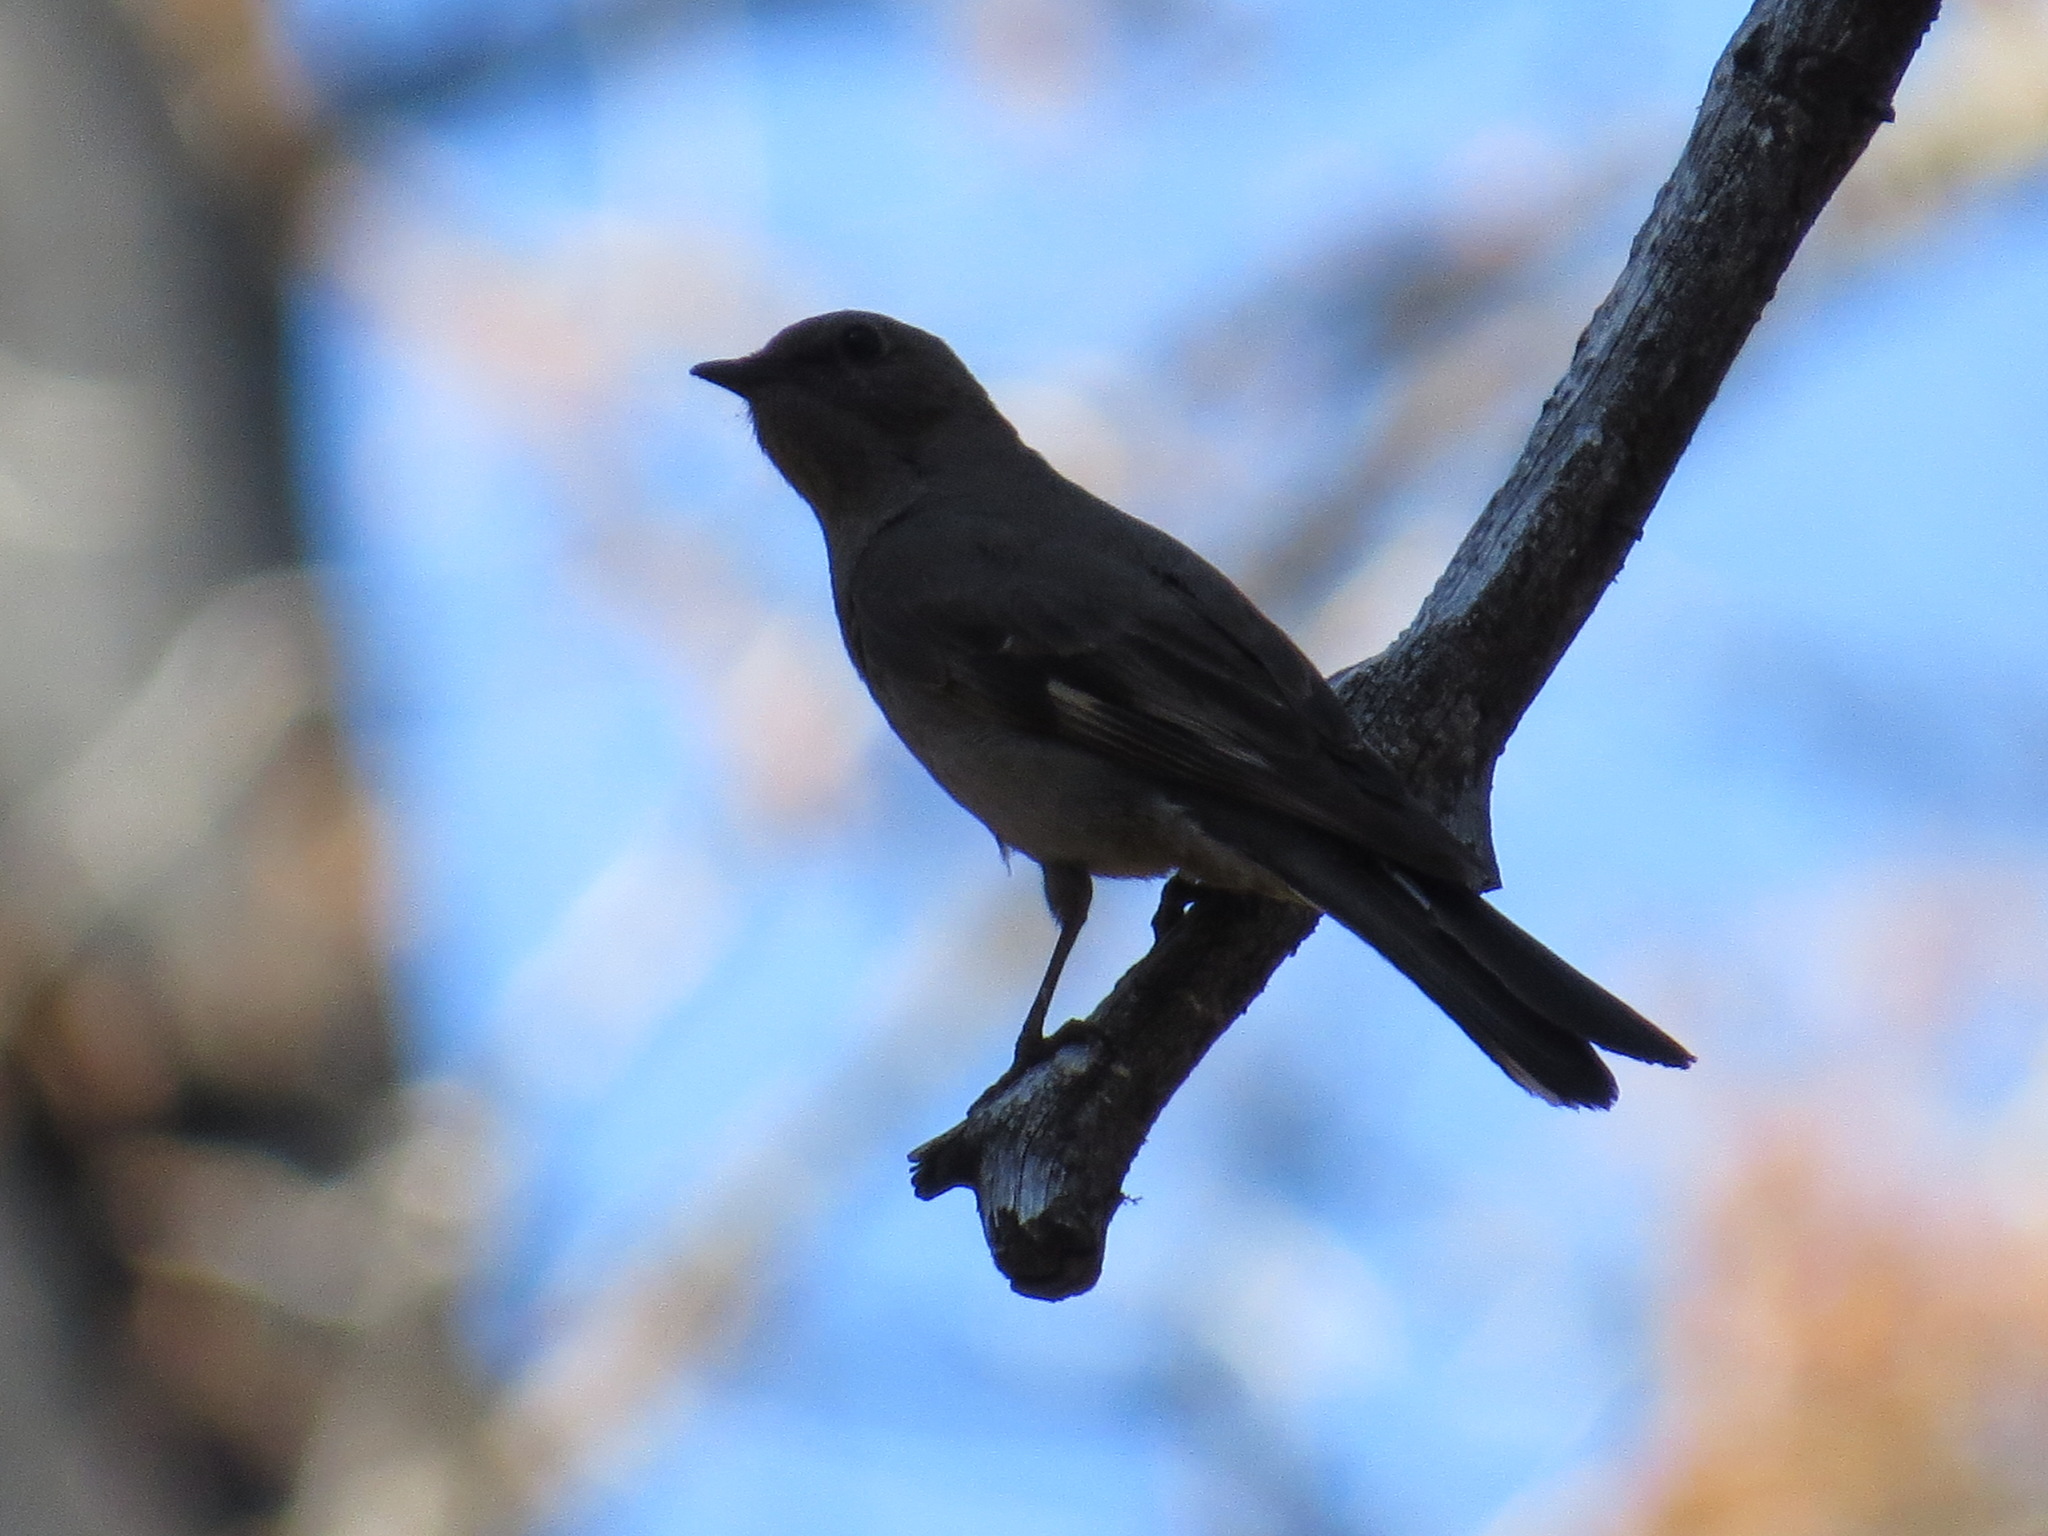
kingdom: Animalia
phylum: Chordata
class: Aves
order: Passeriformes
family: Turdidae
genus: Myadestes
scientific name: Myadestes townsendi
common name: Townsend's solitaire
